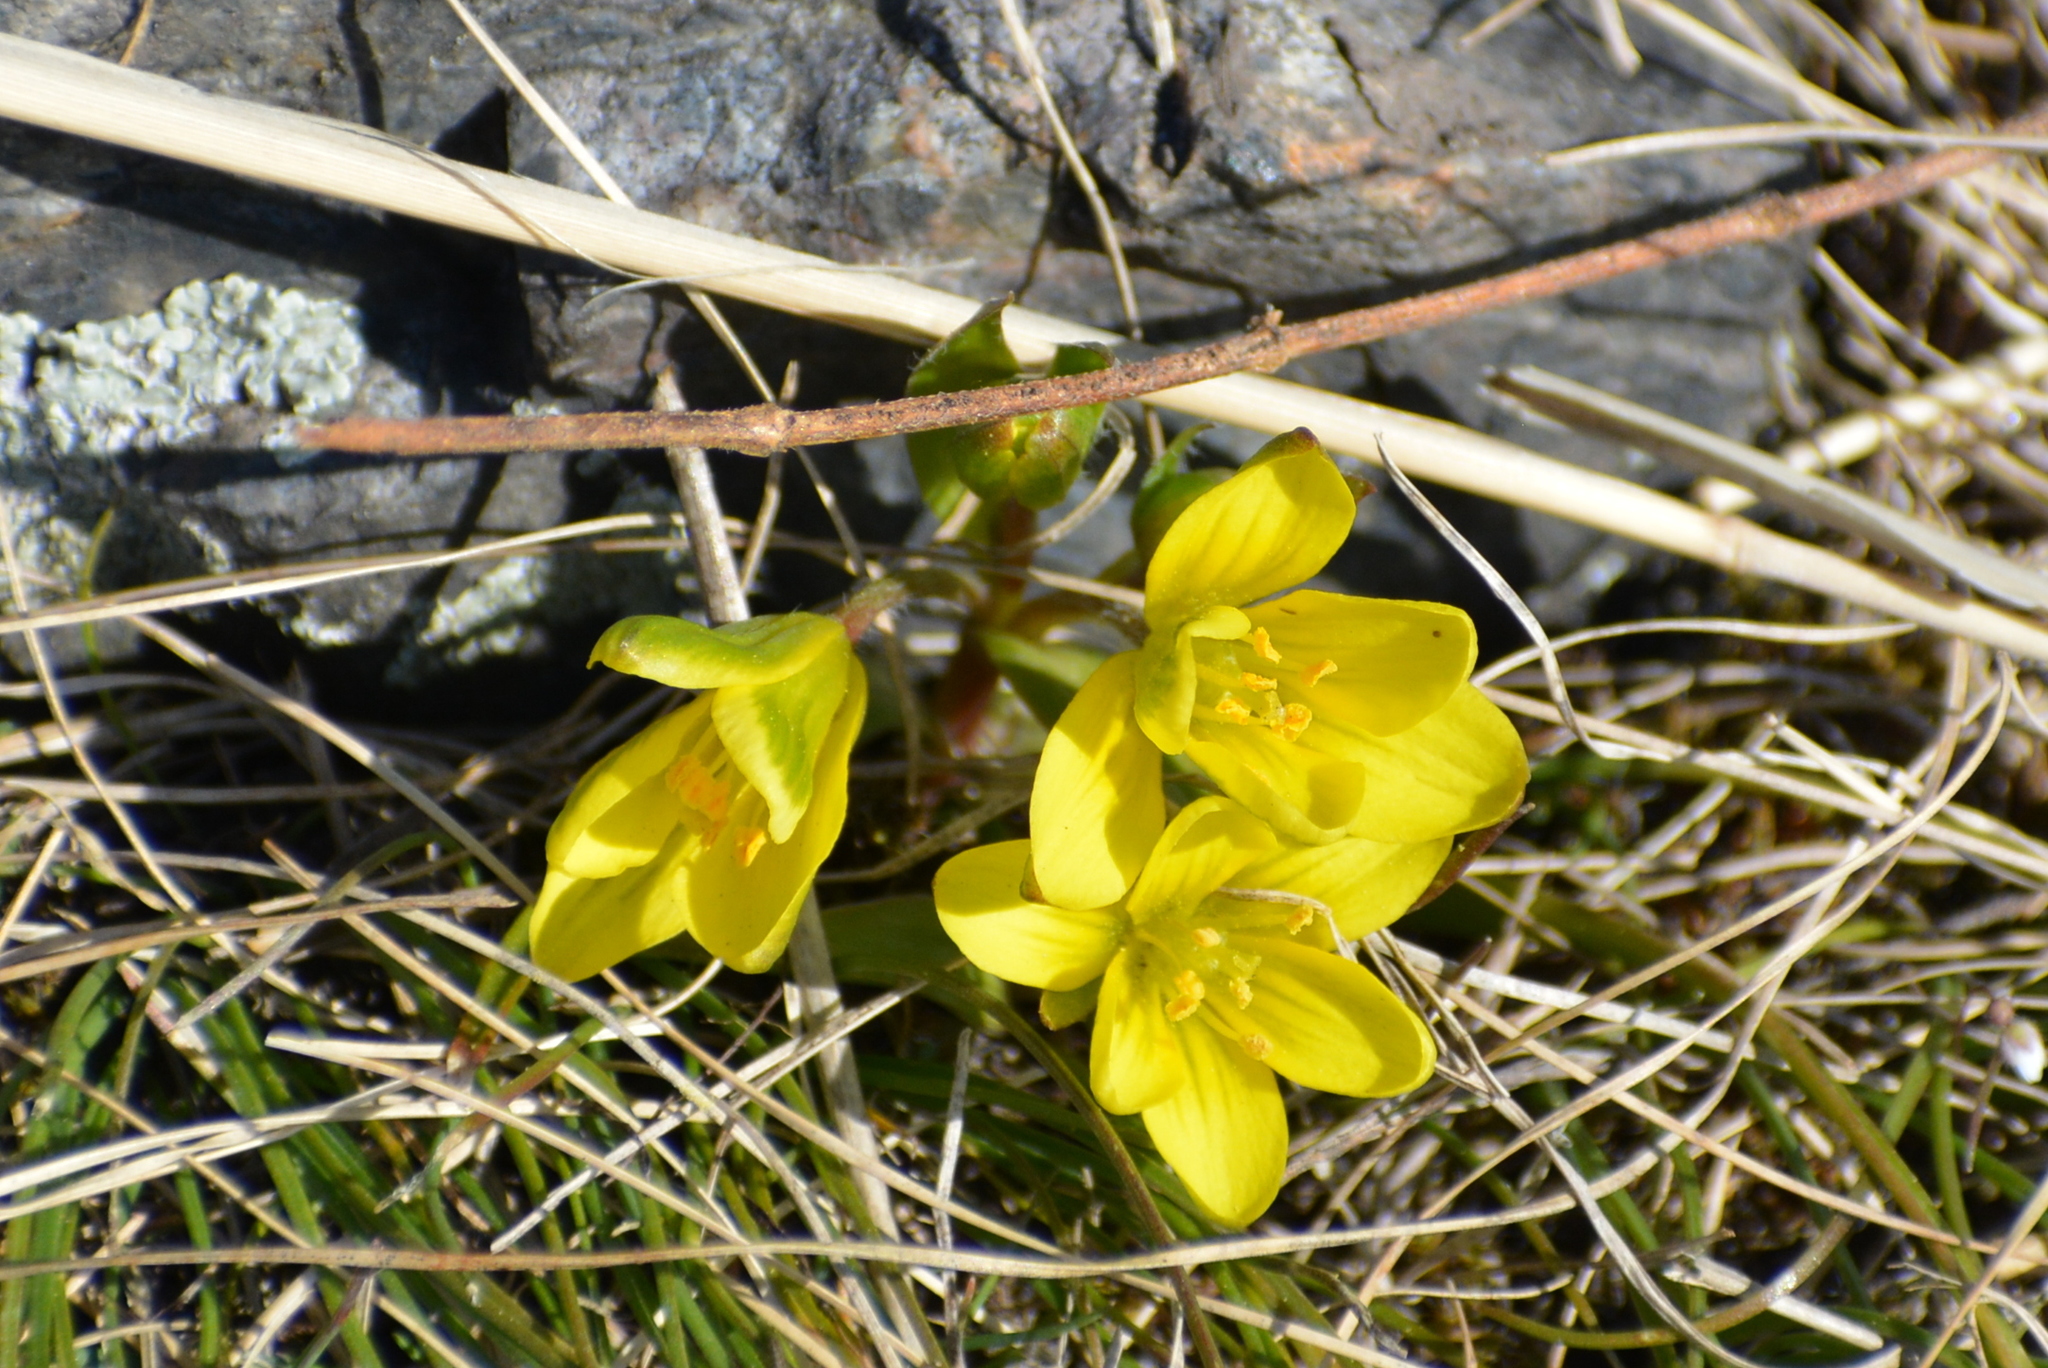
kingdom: Plantae
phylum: Tracheophyta
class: Liliopsida
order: Liliales
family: Liliaceae
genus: Gagea
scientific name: Gagea bohemica
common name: Early star-of-bethlehem
